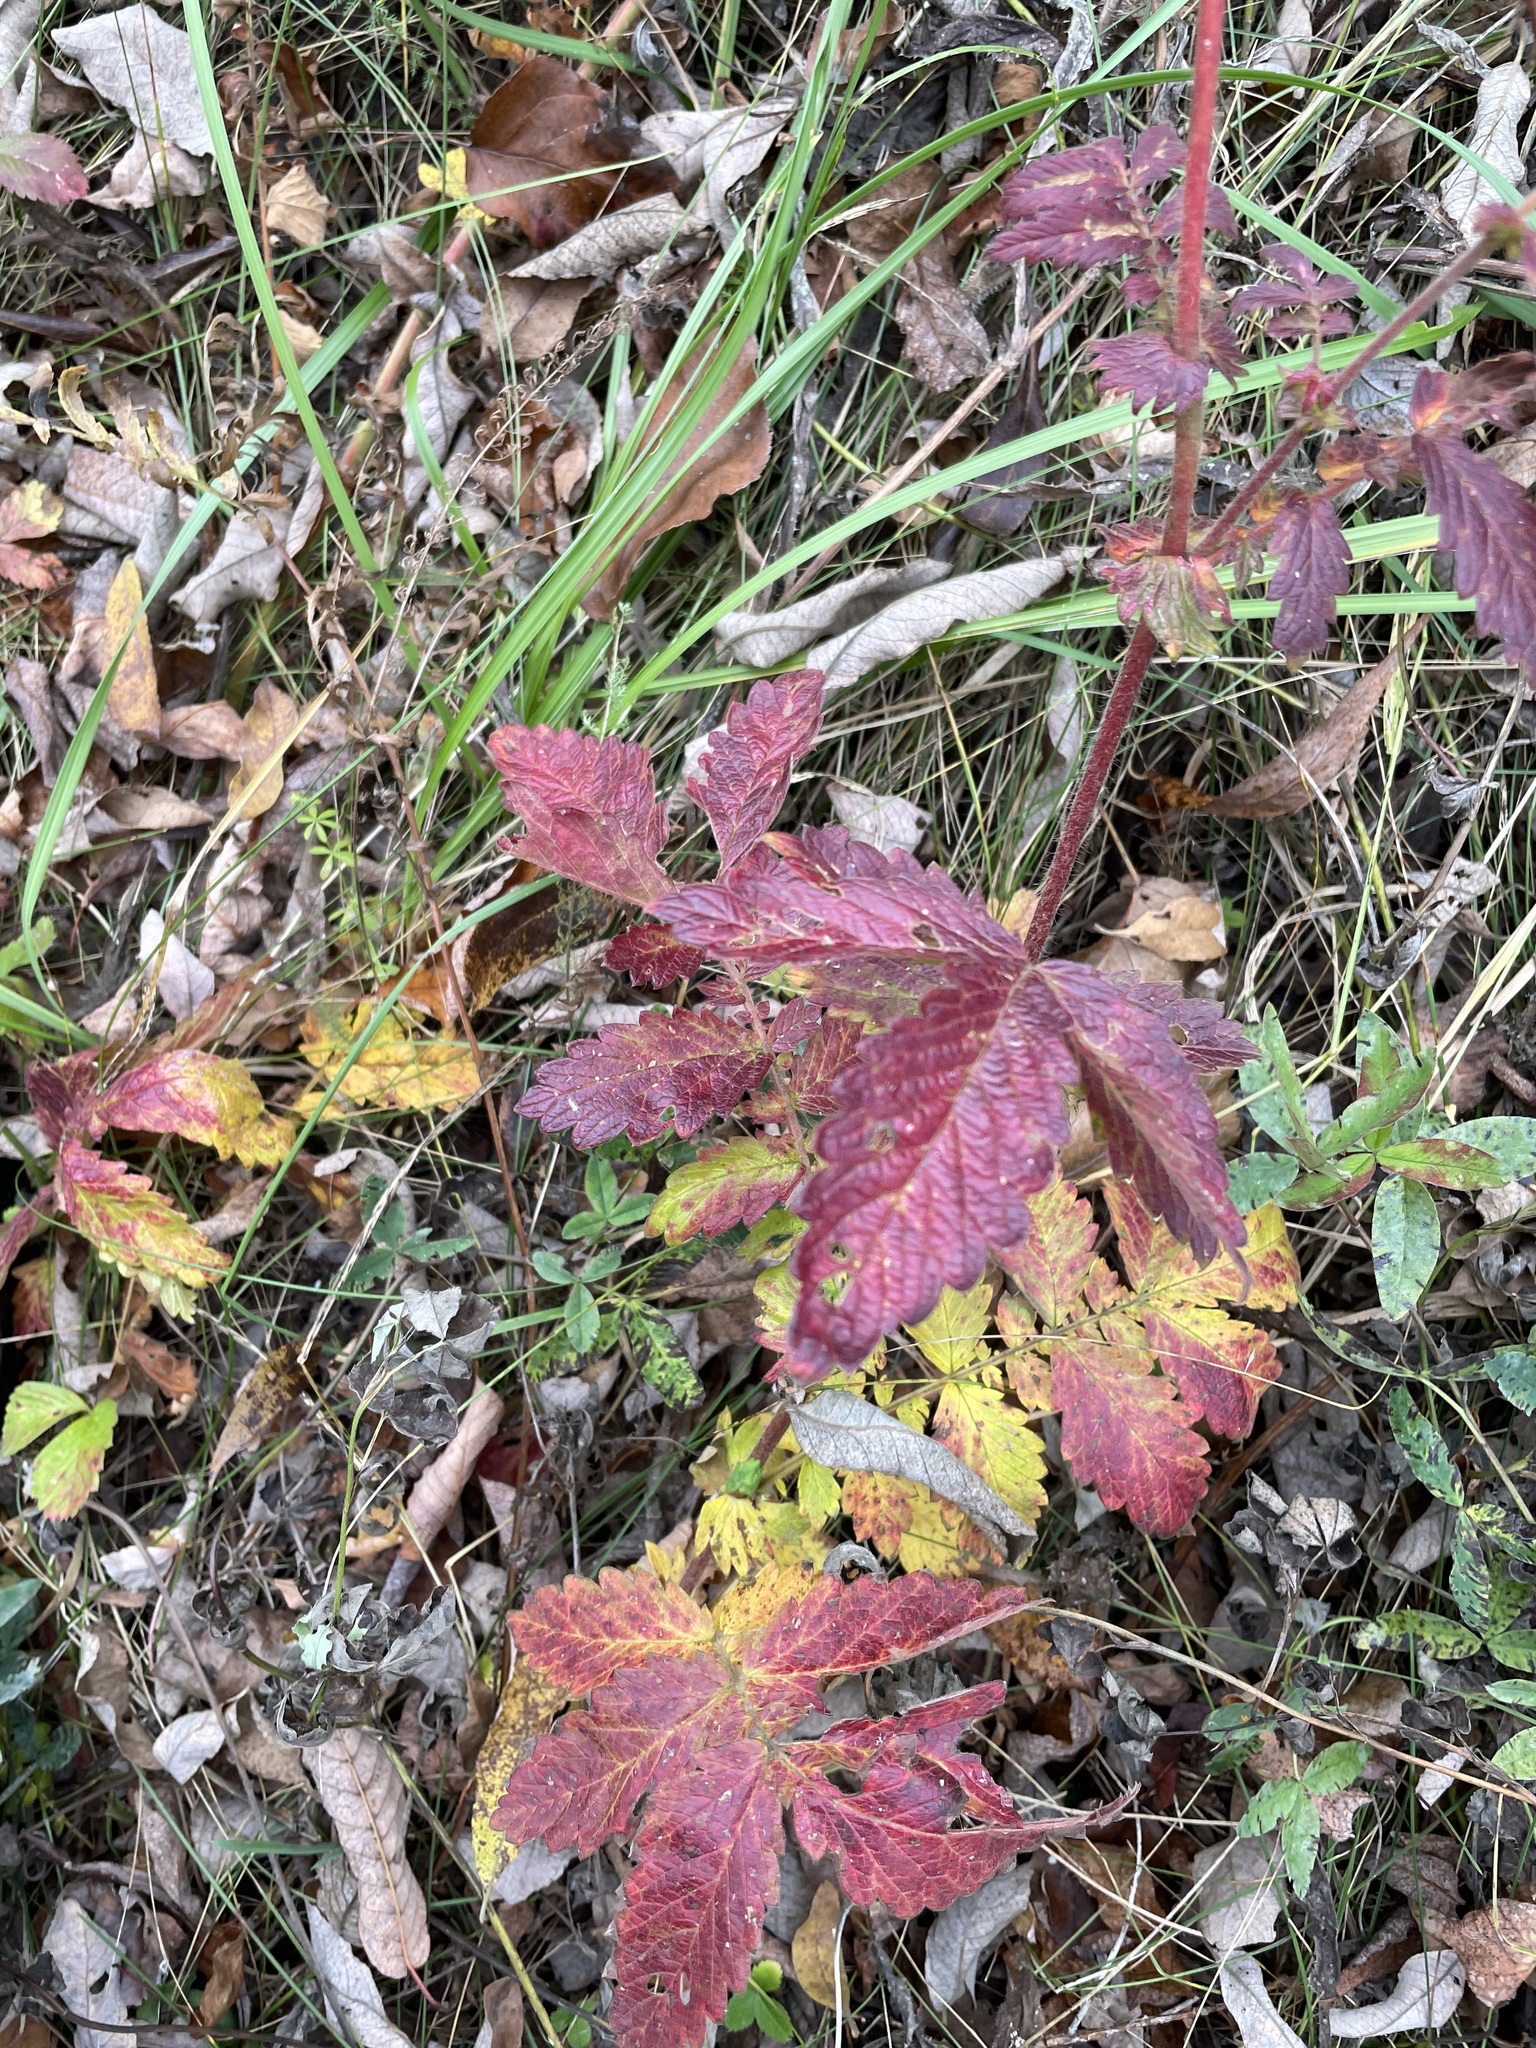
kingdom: Plantae
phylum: Tracheophyta
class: Magnoliopsida
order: Rosales
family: Rosaceae
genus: Agrimonia
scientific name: Agrimonia eupatoria
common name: Agrimony
